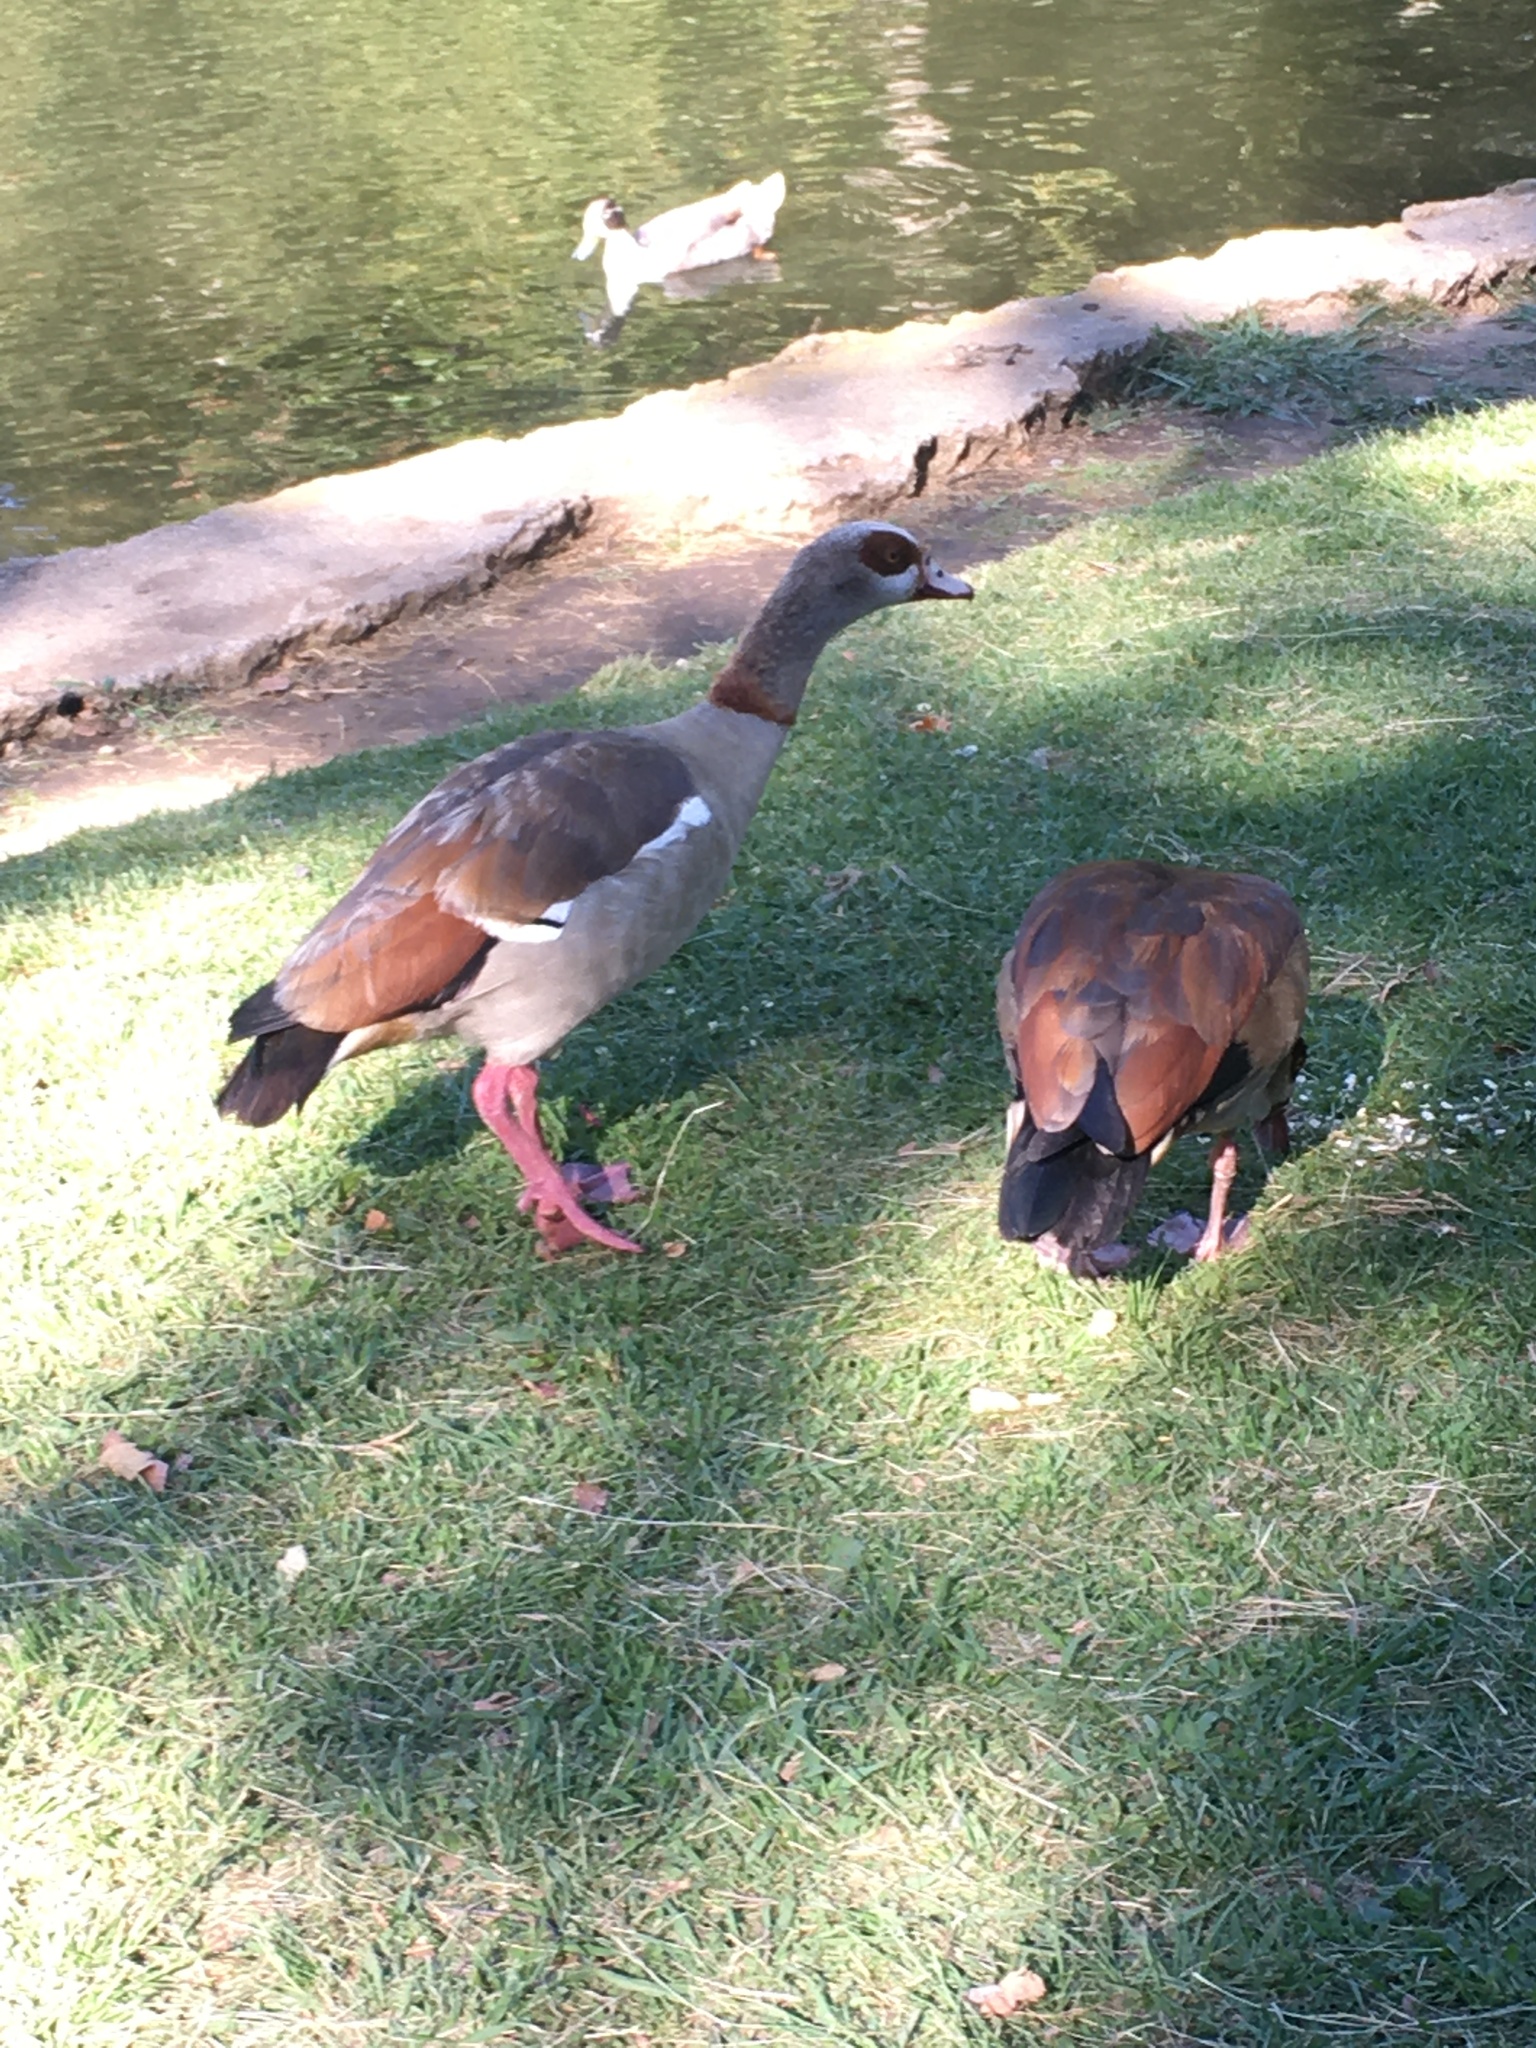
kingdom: Animalia
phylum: Chordata
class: Aves
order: Anseriformes
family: Anatidae
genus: Alopochen
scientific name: Alopochen aegyptiaca
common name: Egyptian goose
